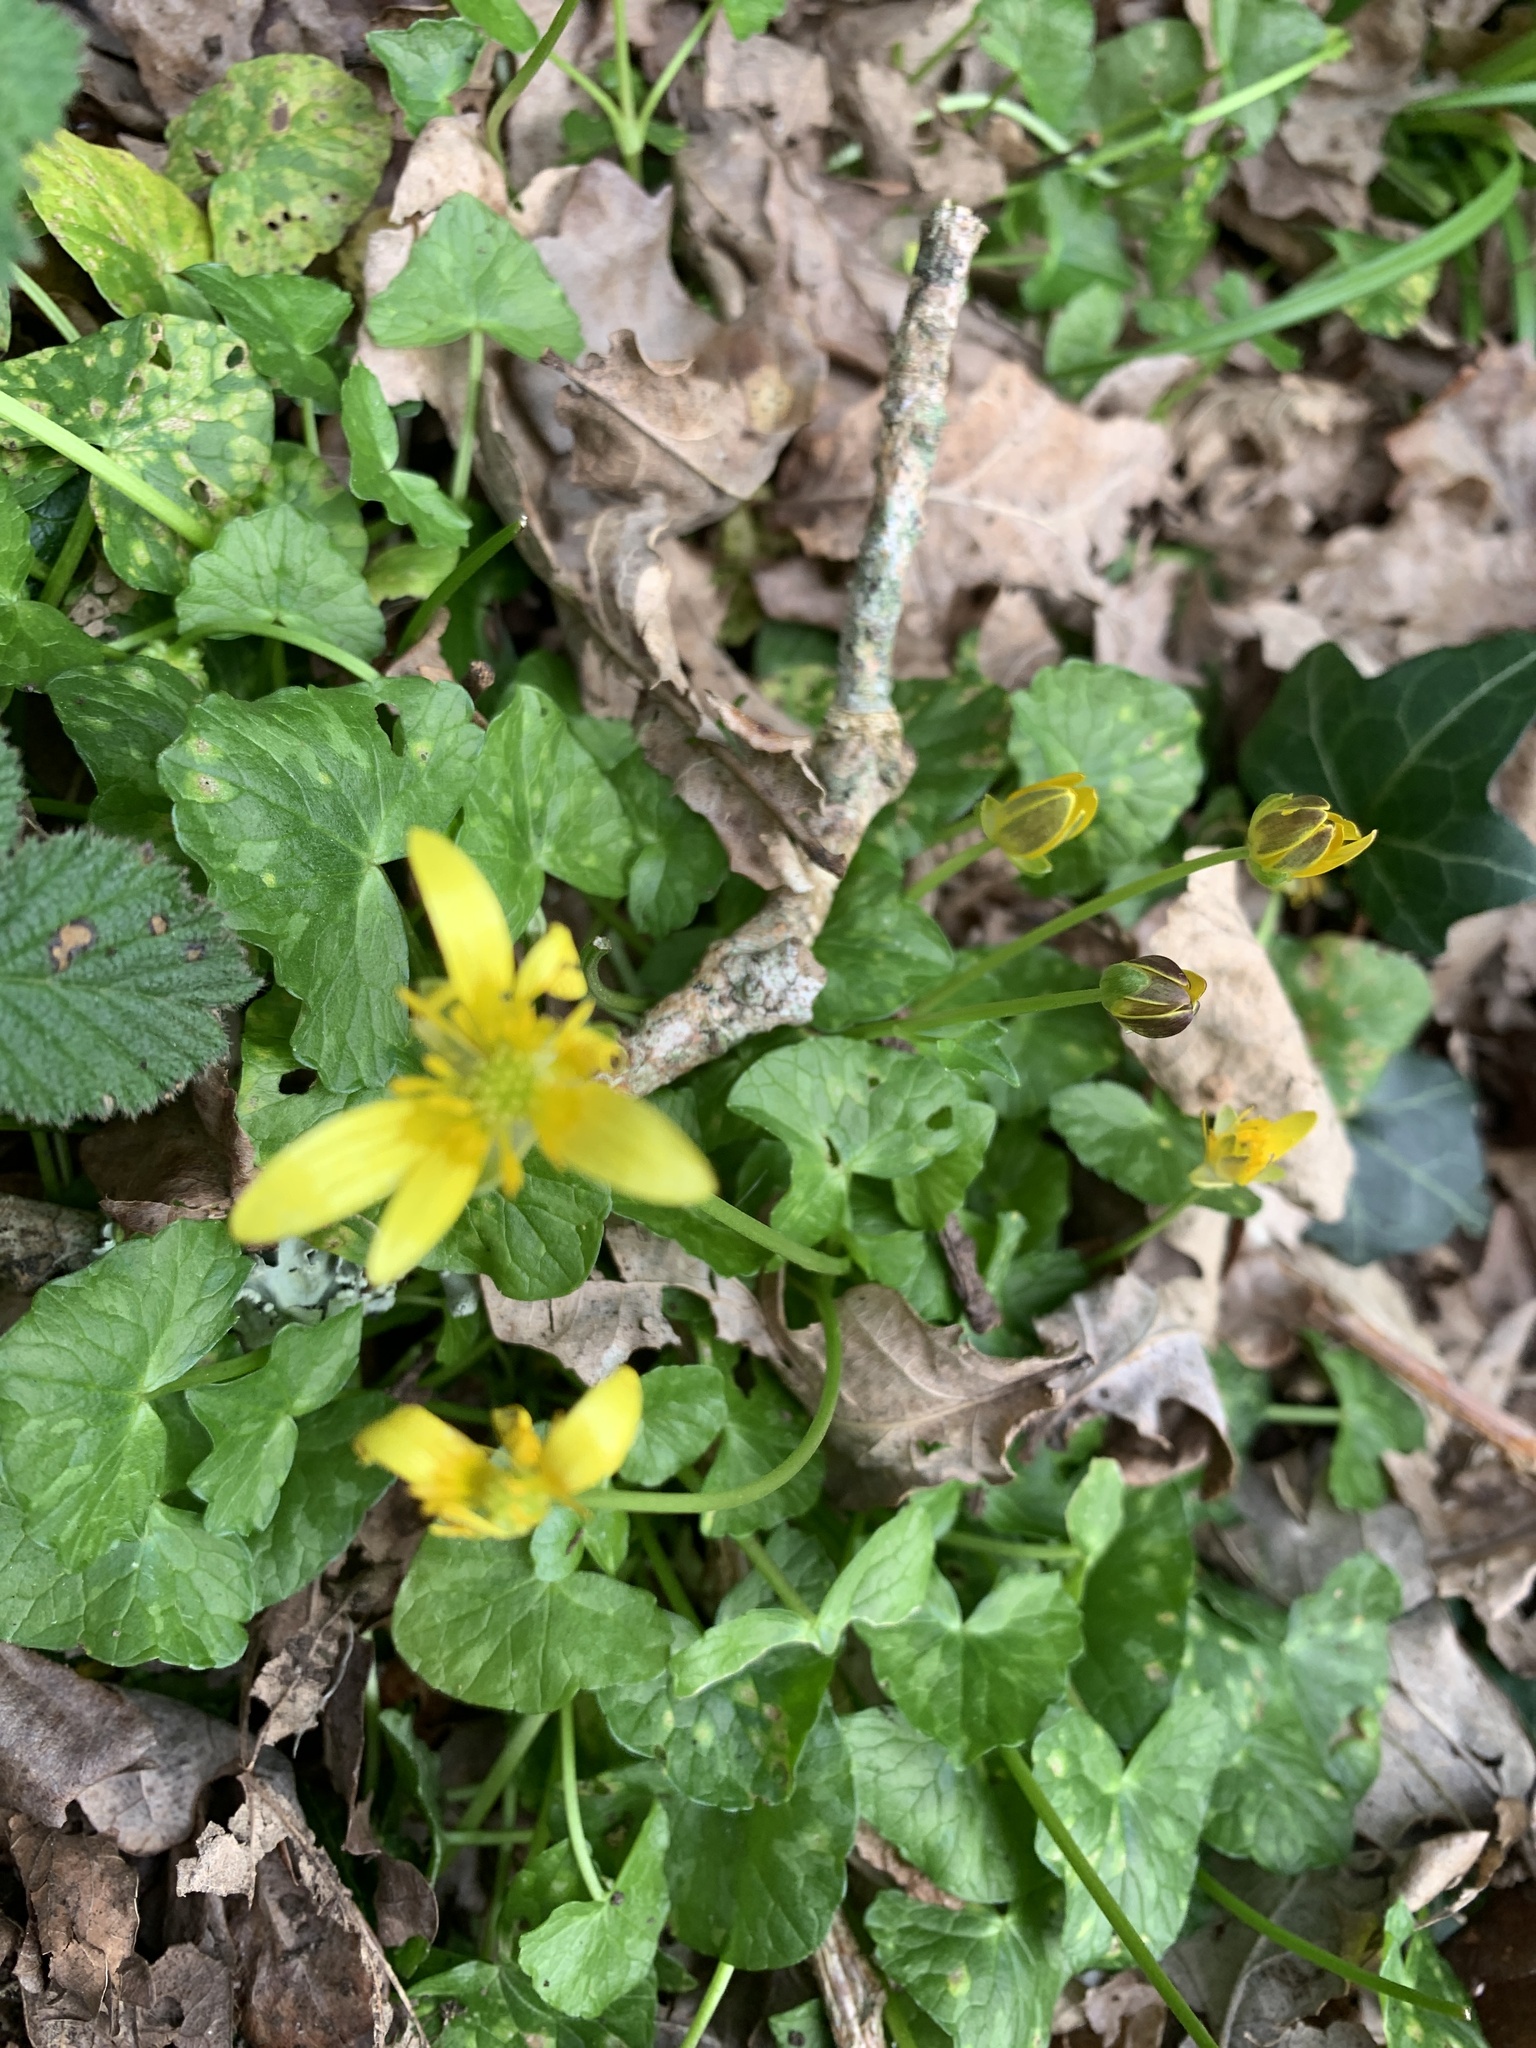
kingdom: Plantae
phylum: Tracheophyta
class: Magnoliopsida
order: Ranunculales
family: Ranunculaceae
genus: Ficaria
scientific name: Ficaria verna
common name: Lesser celandine
